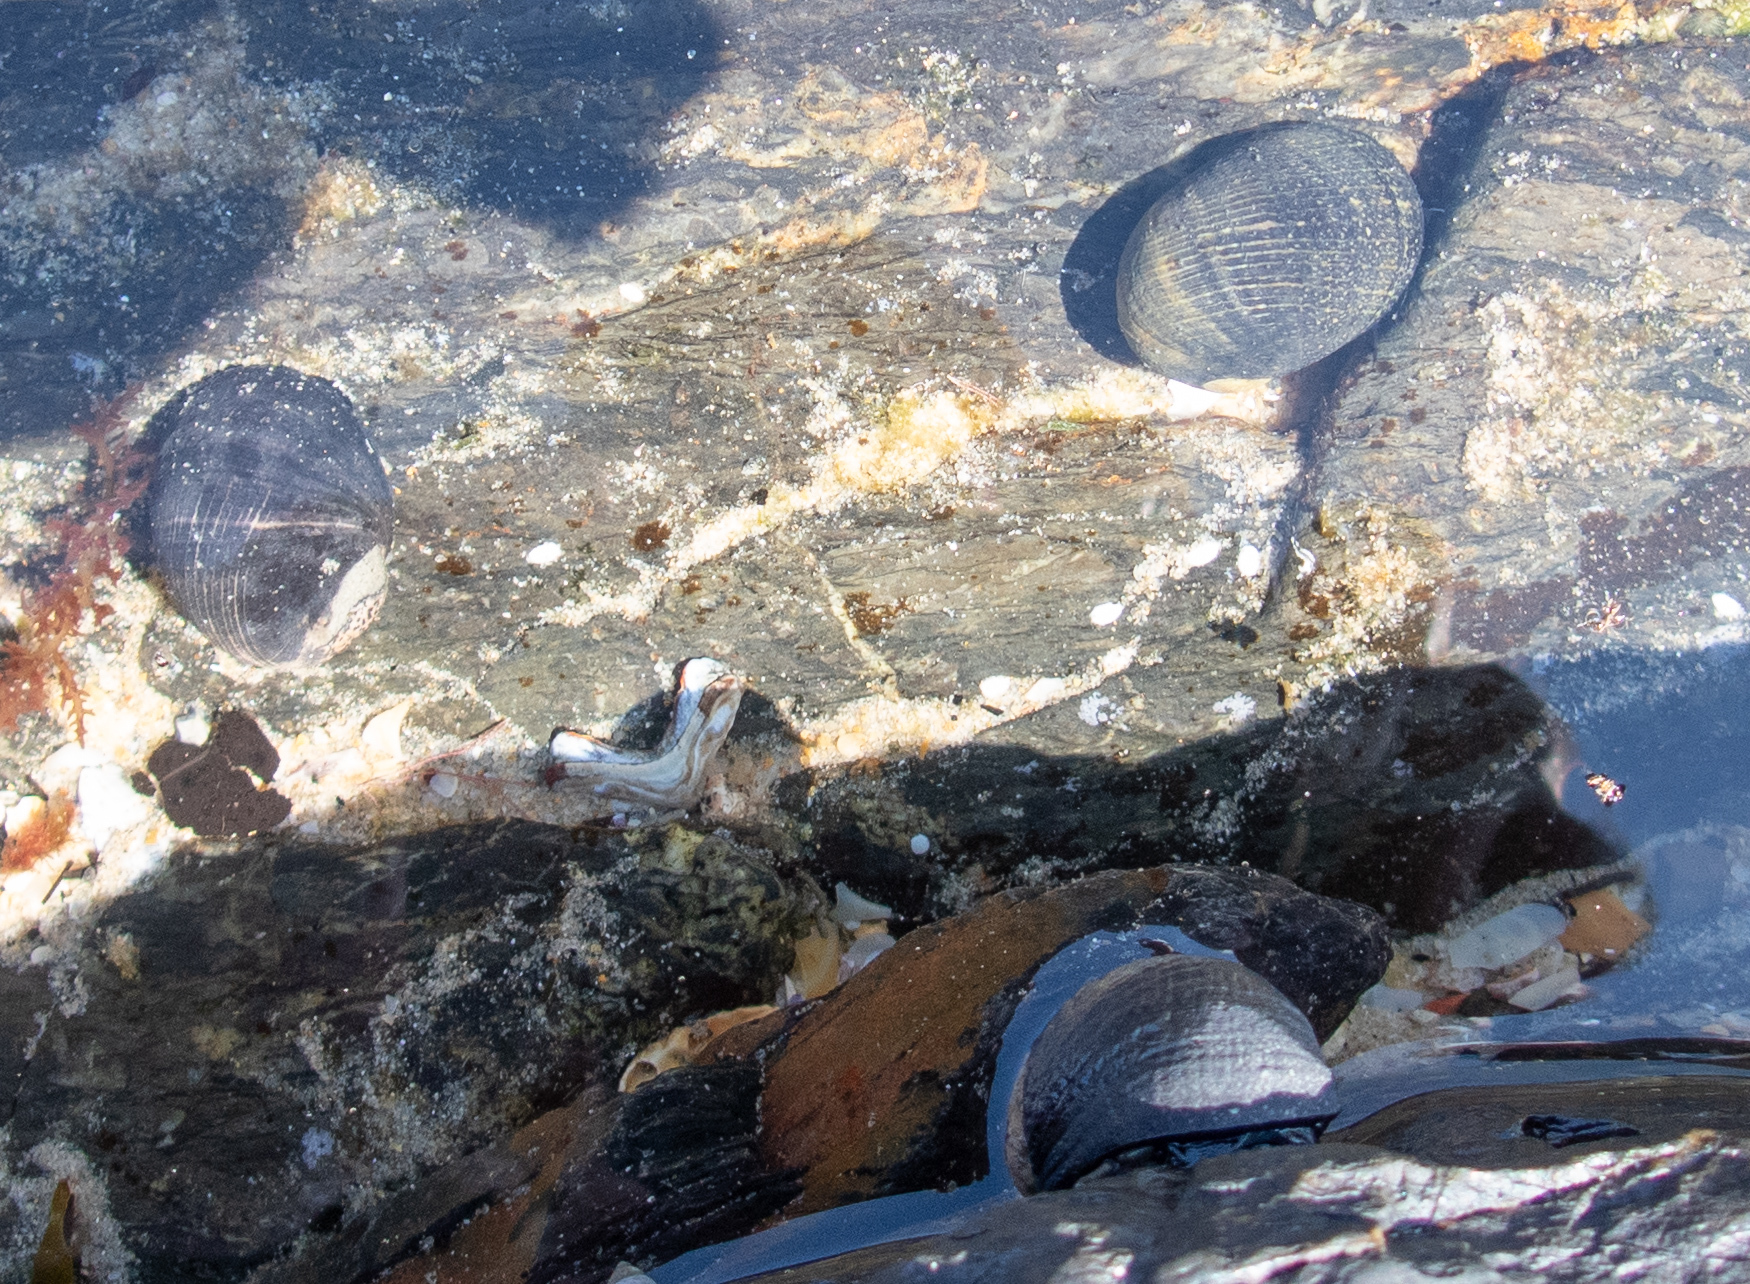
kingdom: Animalia
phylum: Mollusca
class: Gastropoda
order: Cycloneritida
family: Neritidae
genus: Nerita
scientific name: Nerita melanotragus
